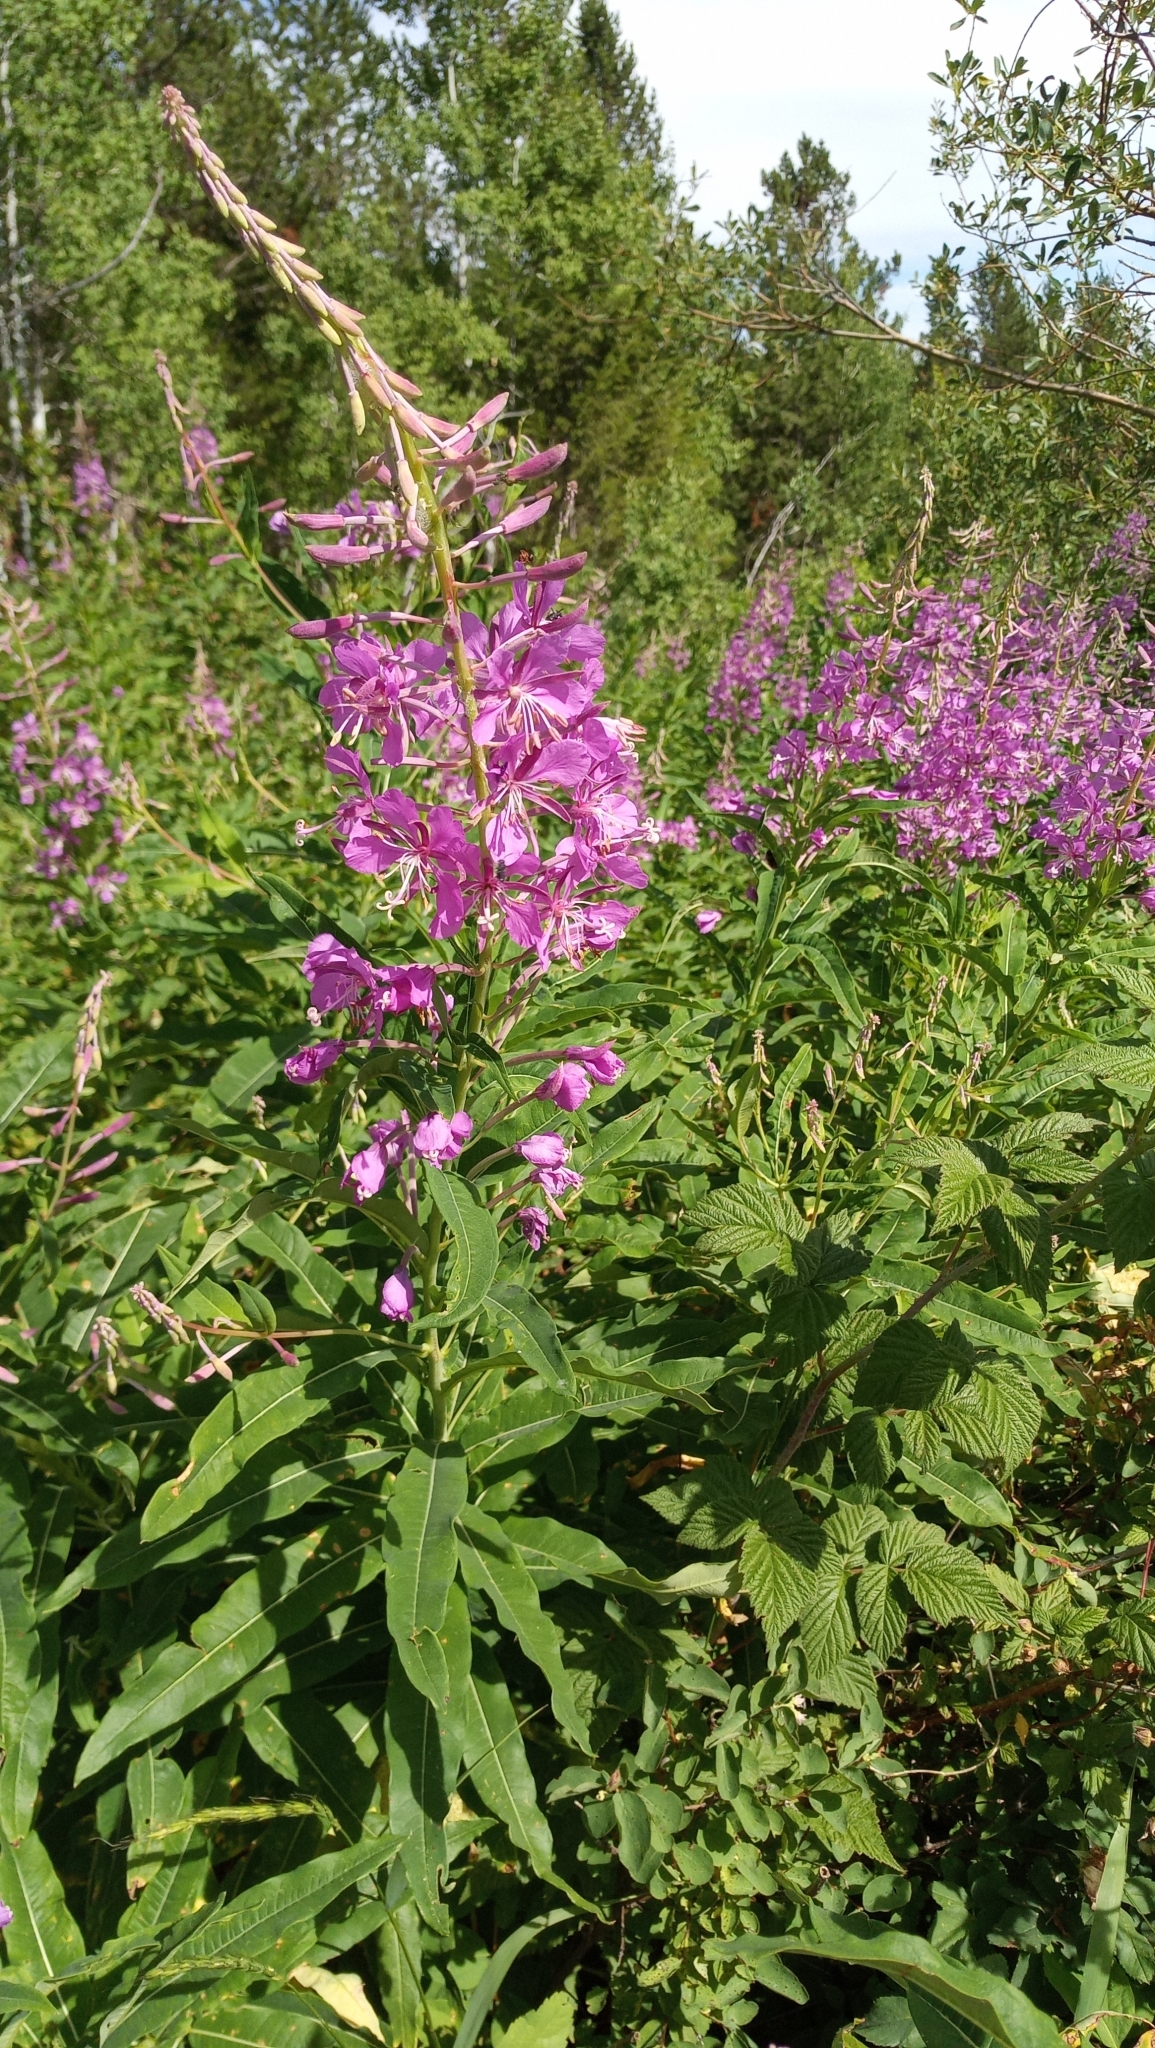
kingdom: Plantae
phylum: Tracheophyta
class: Magnoliopsida
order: Myrtales
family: Onagraceae
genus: Chamaenerion
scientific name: Chamaenerion angustifolium
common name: Fireweed
